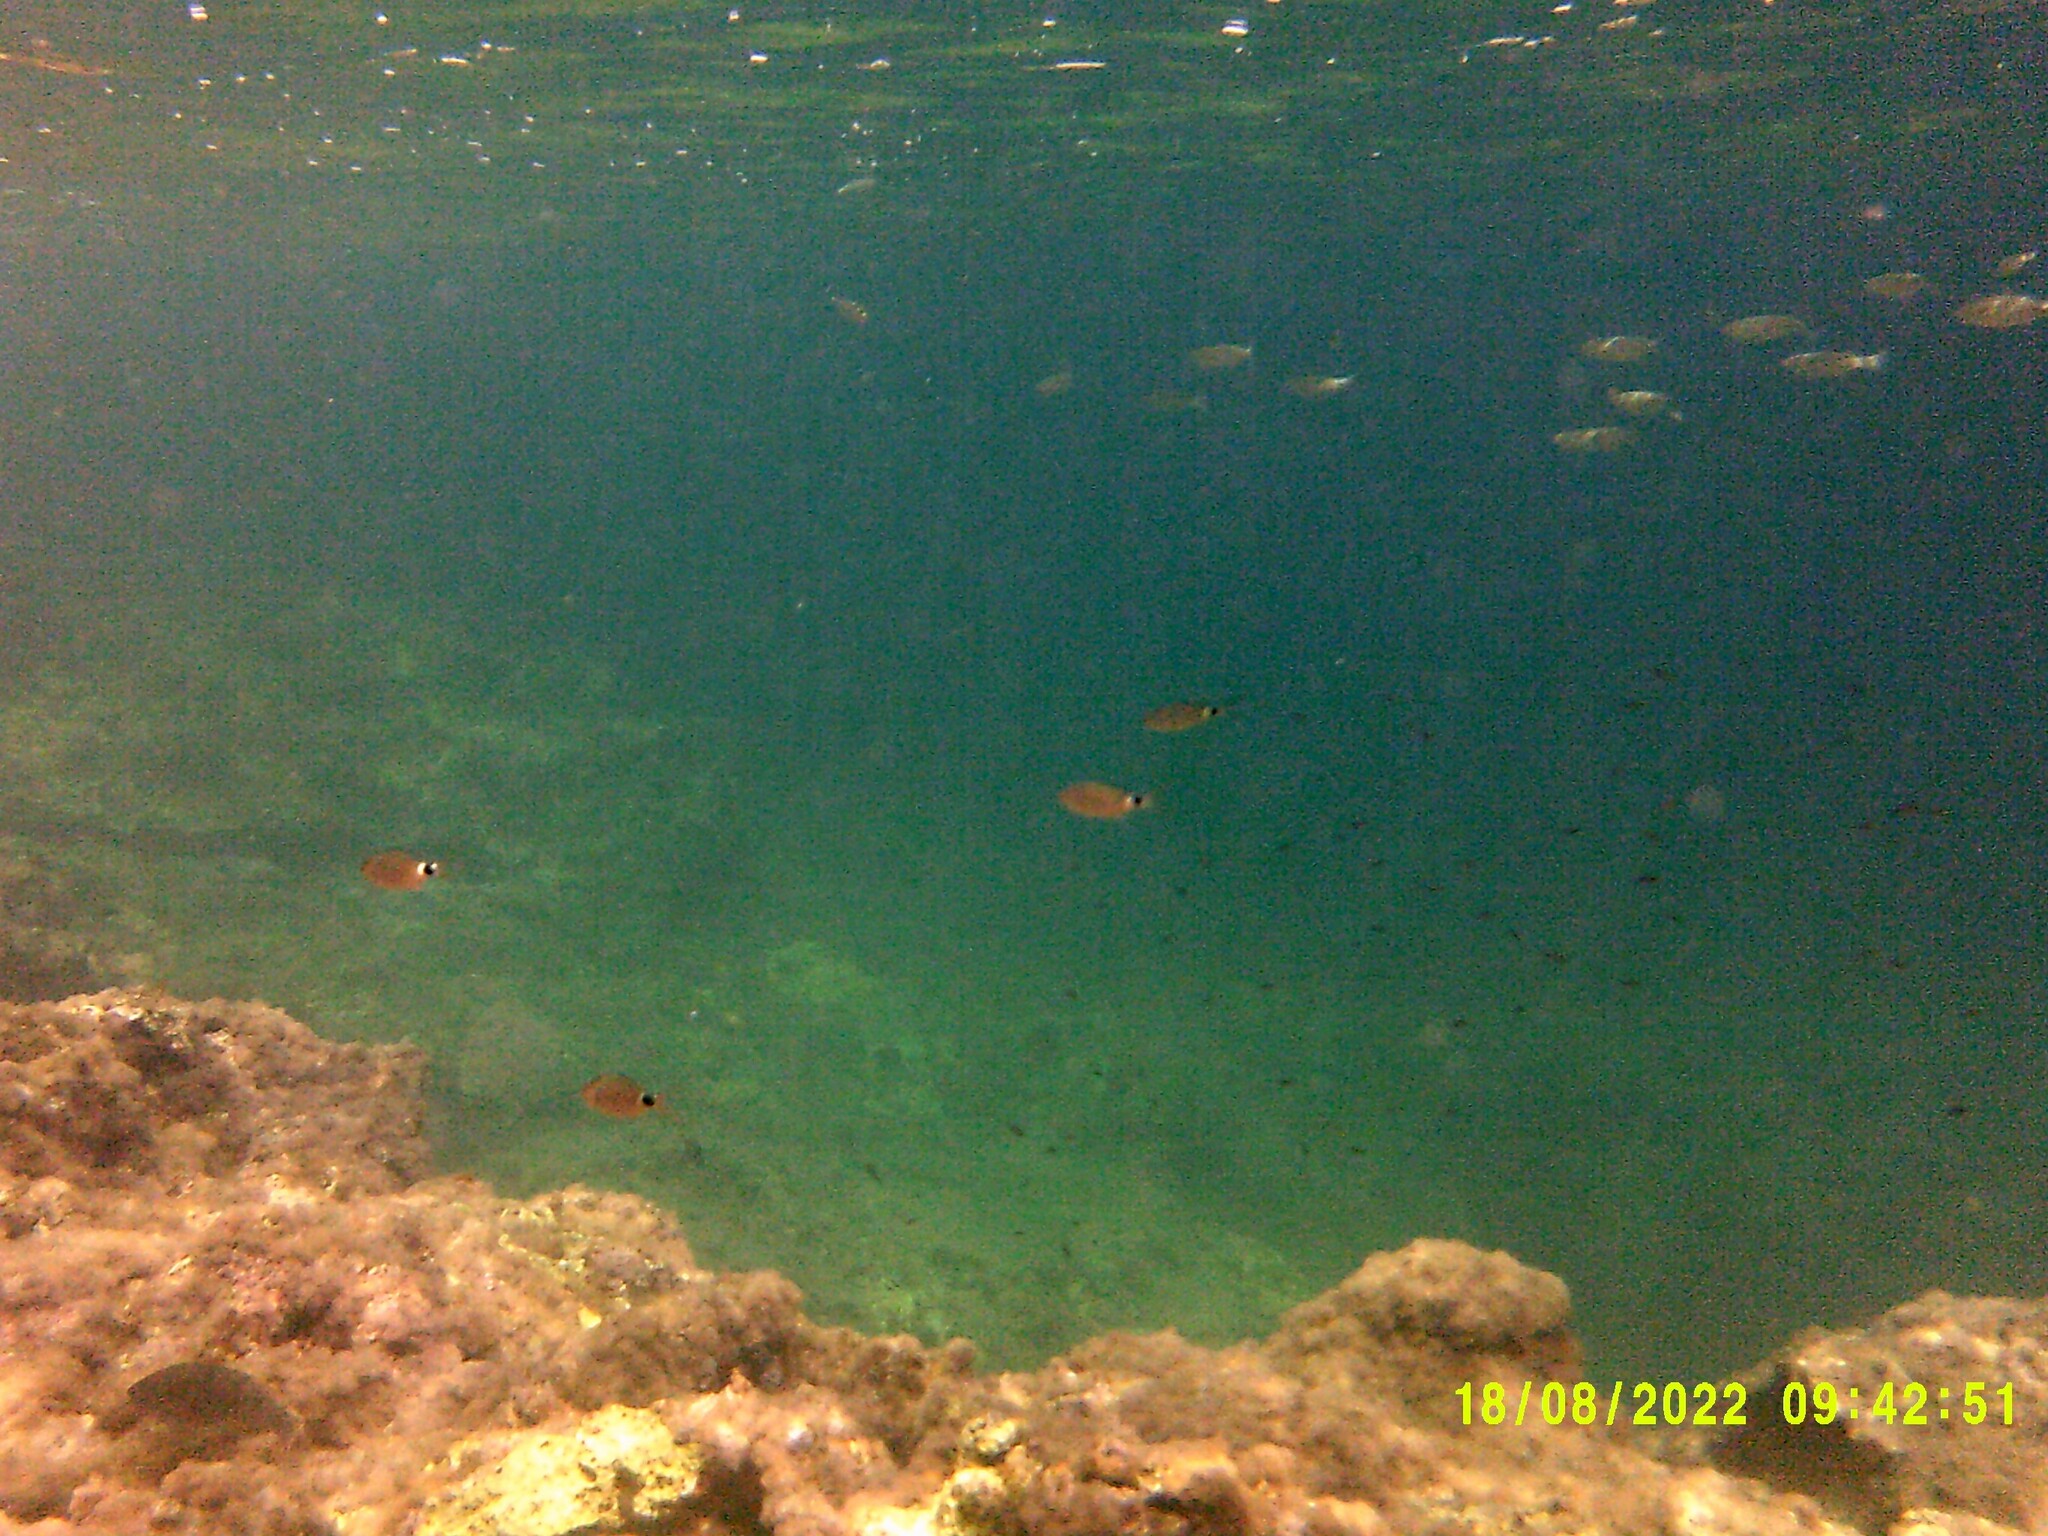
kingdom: Animalia
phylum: Chordata
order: Perciformes
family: Sparidae
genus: Oblada
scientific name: Oblada melanura
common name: Saddled seabream
